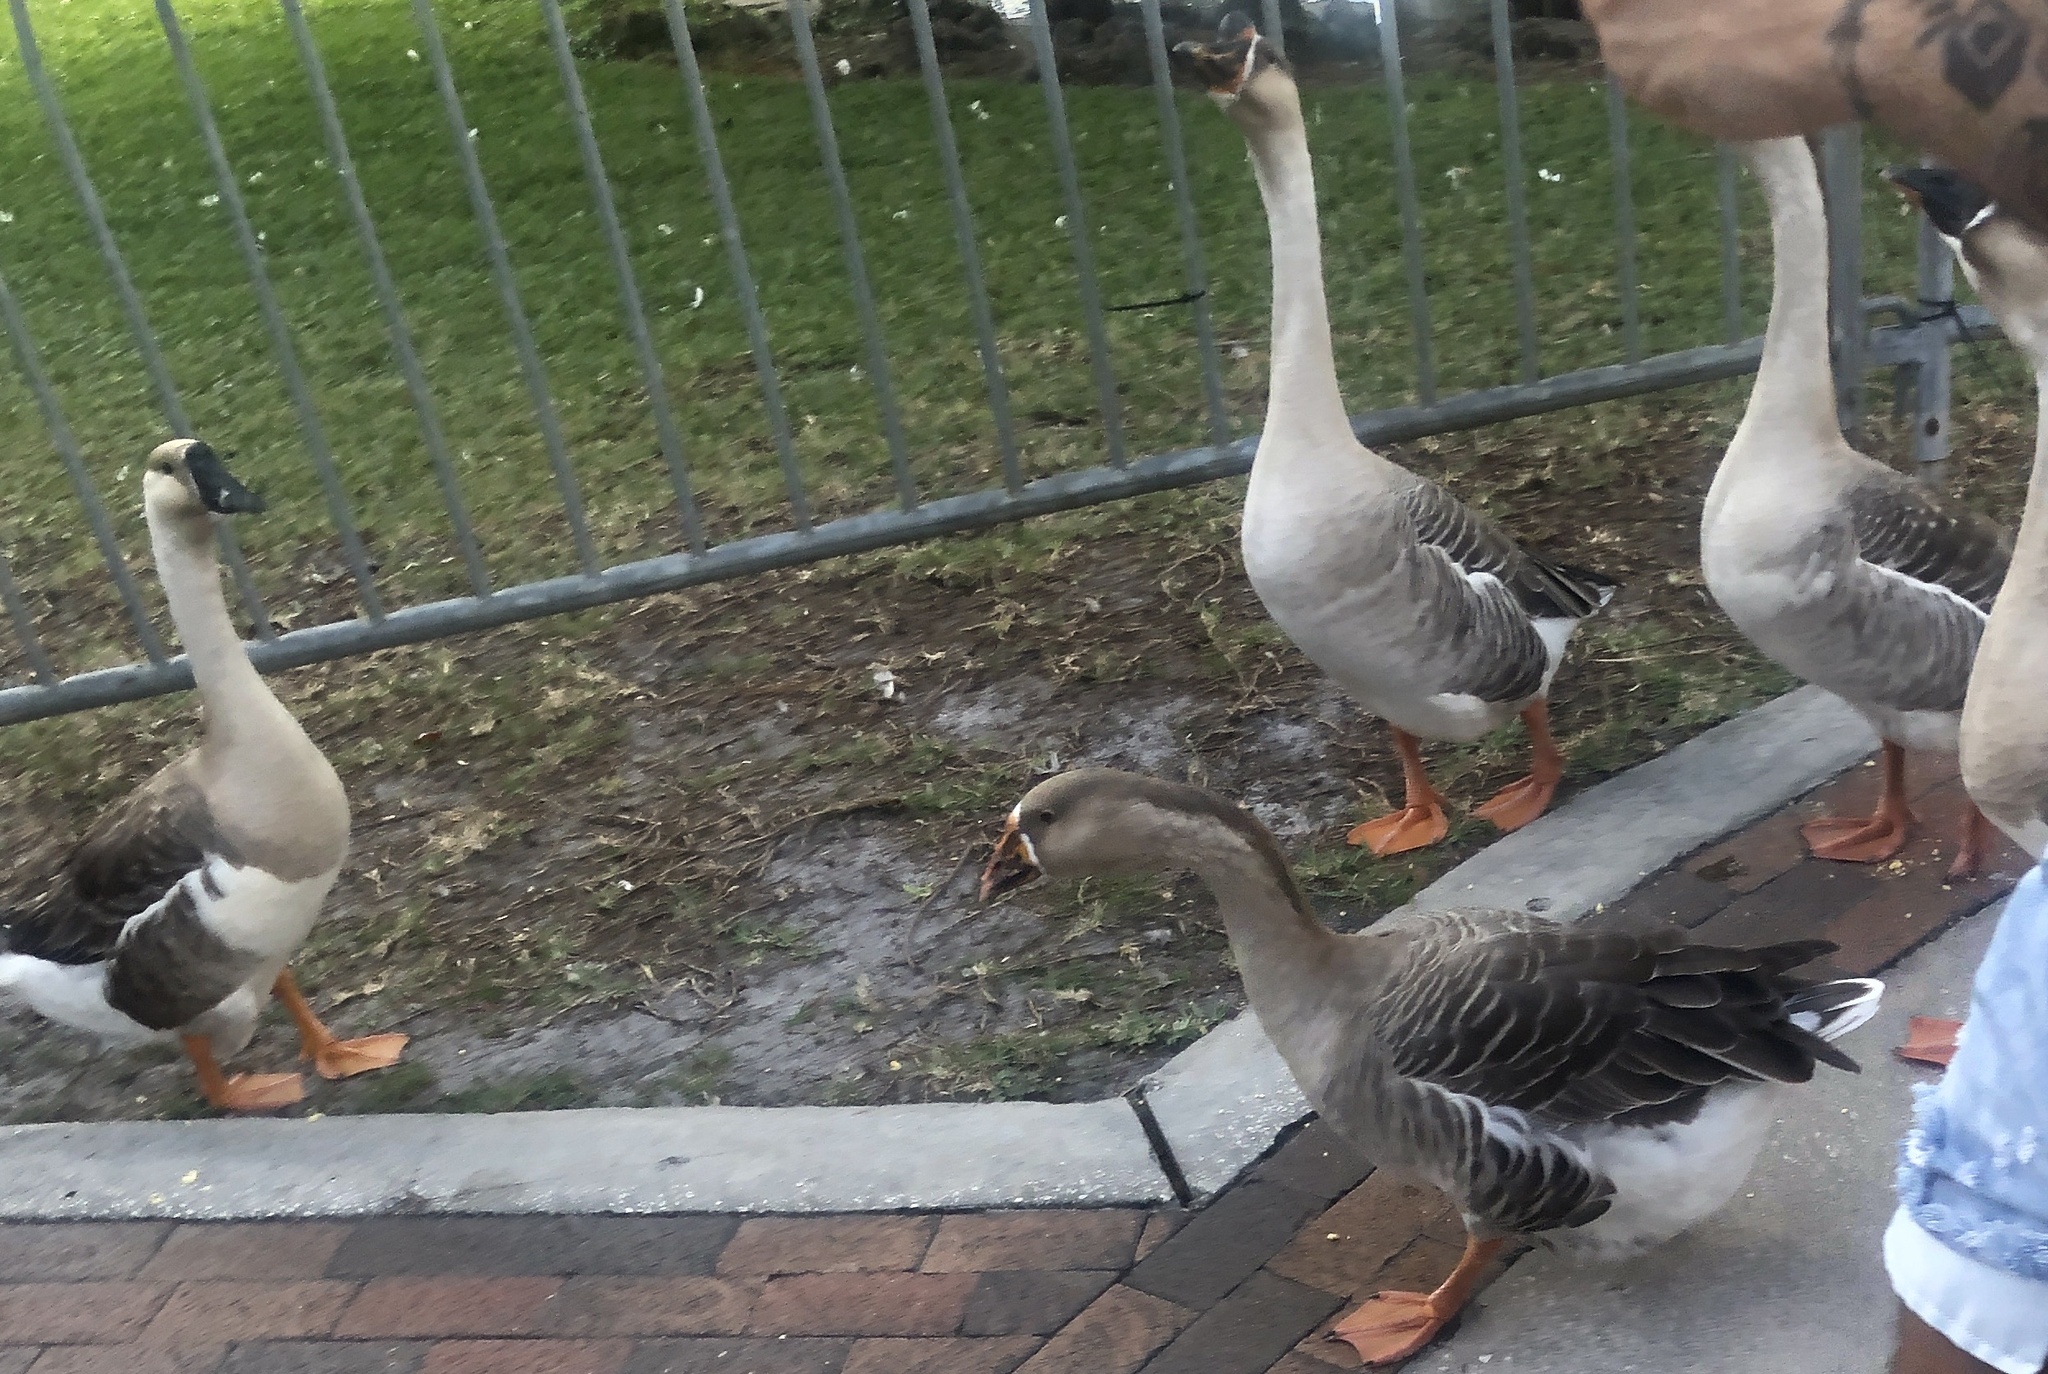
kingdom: Animalia
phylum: Chordata
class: Aves
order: Anseriformes
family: Anatidae
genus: Anser
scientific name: Anser cygnoides
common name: Swan goose
